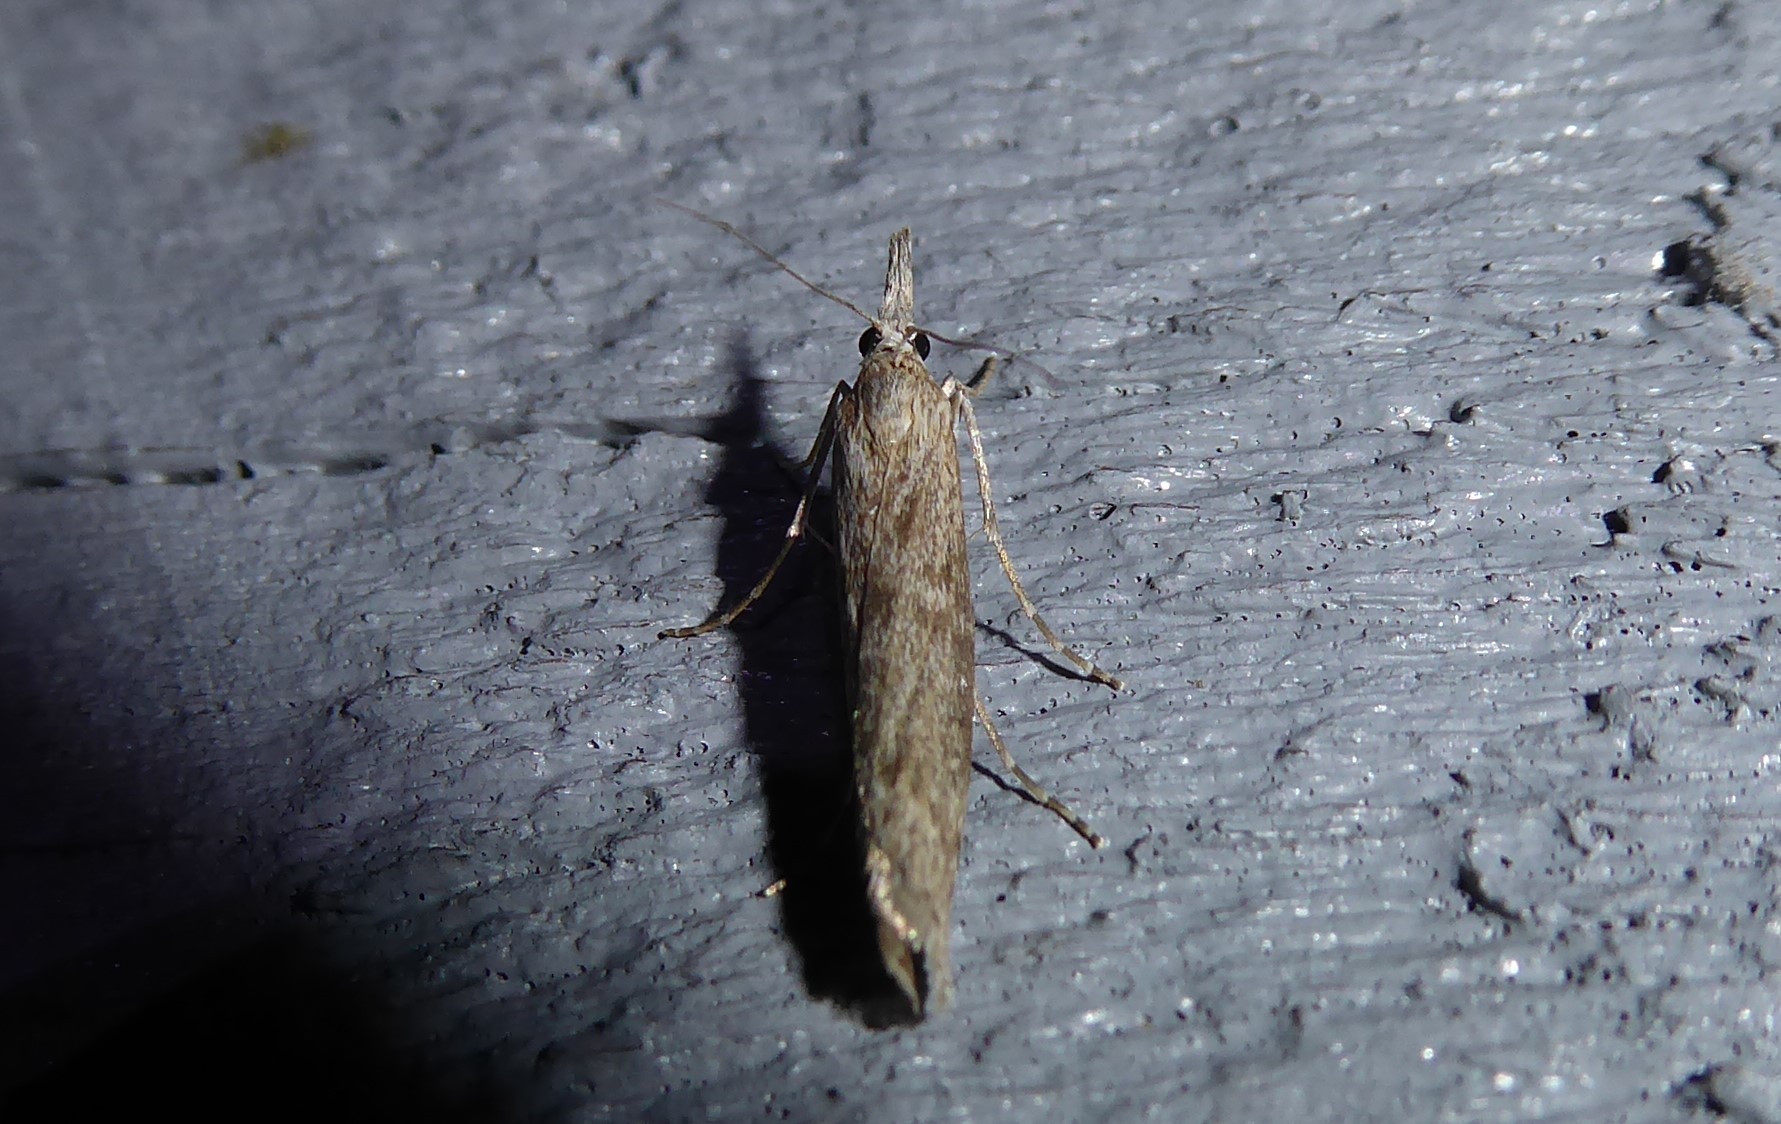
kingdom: Animalia
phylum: Arthropoda
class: Insecta
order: Lepidoptera
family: Crambidae
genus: Orocrambus
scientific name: Orocrambus cyclopicus
